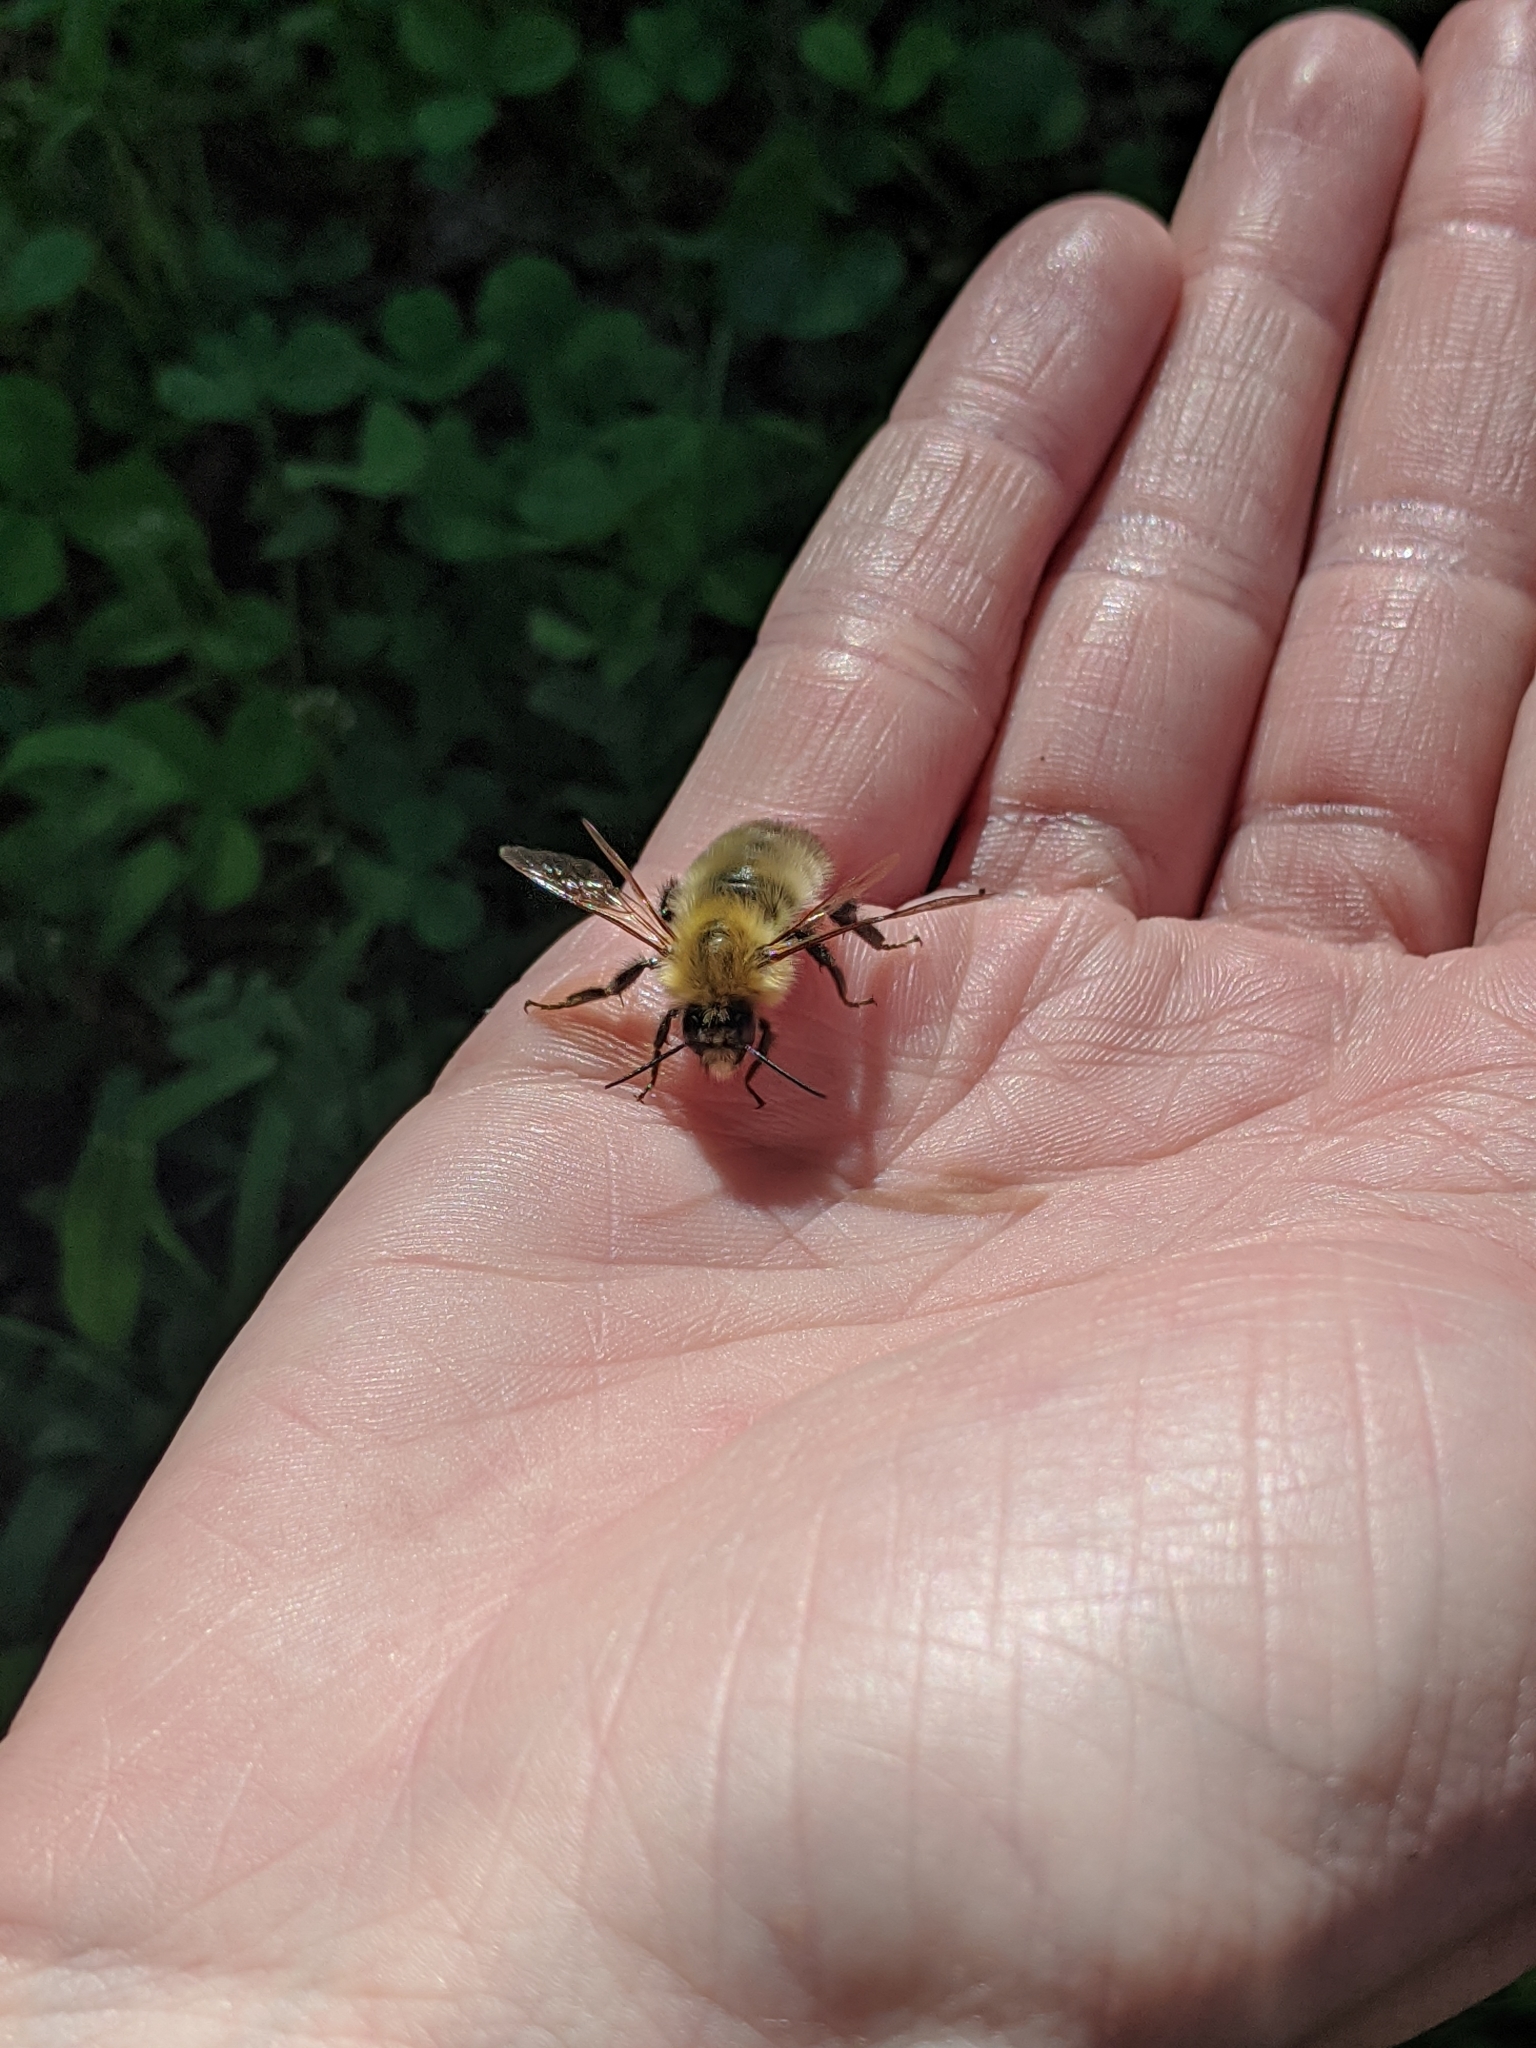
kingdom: Animalia
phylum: Arthropoda
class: Insecta
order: Hymenoptera
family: Apidae
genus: Bombus
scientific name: Bombus perplexus
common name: Confusing bumble bee
